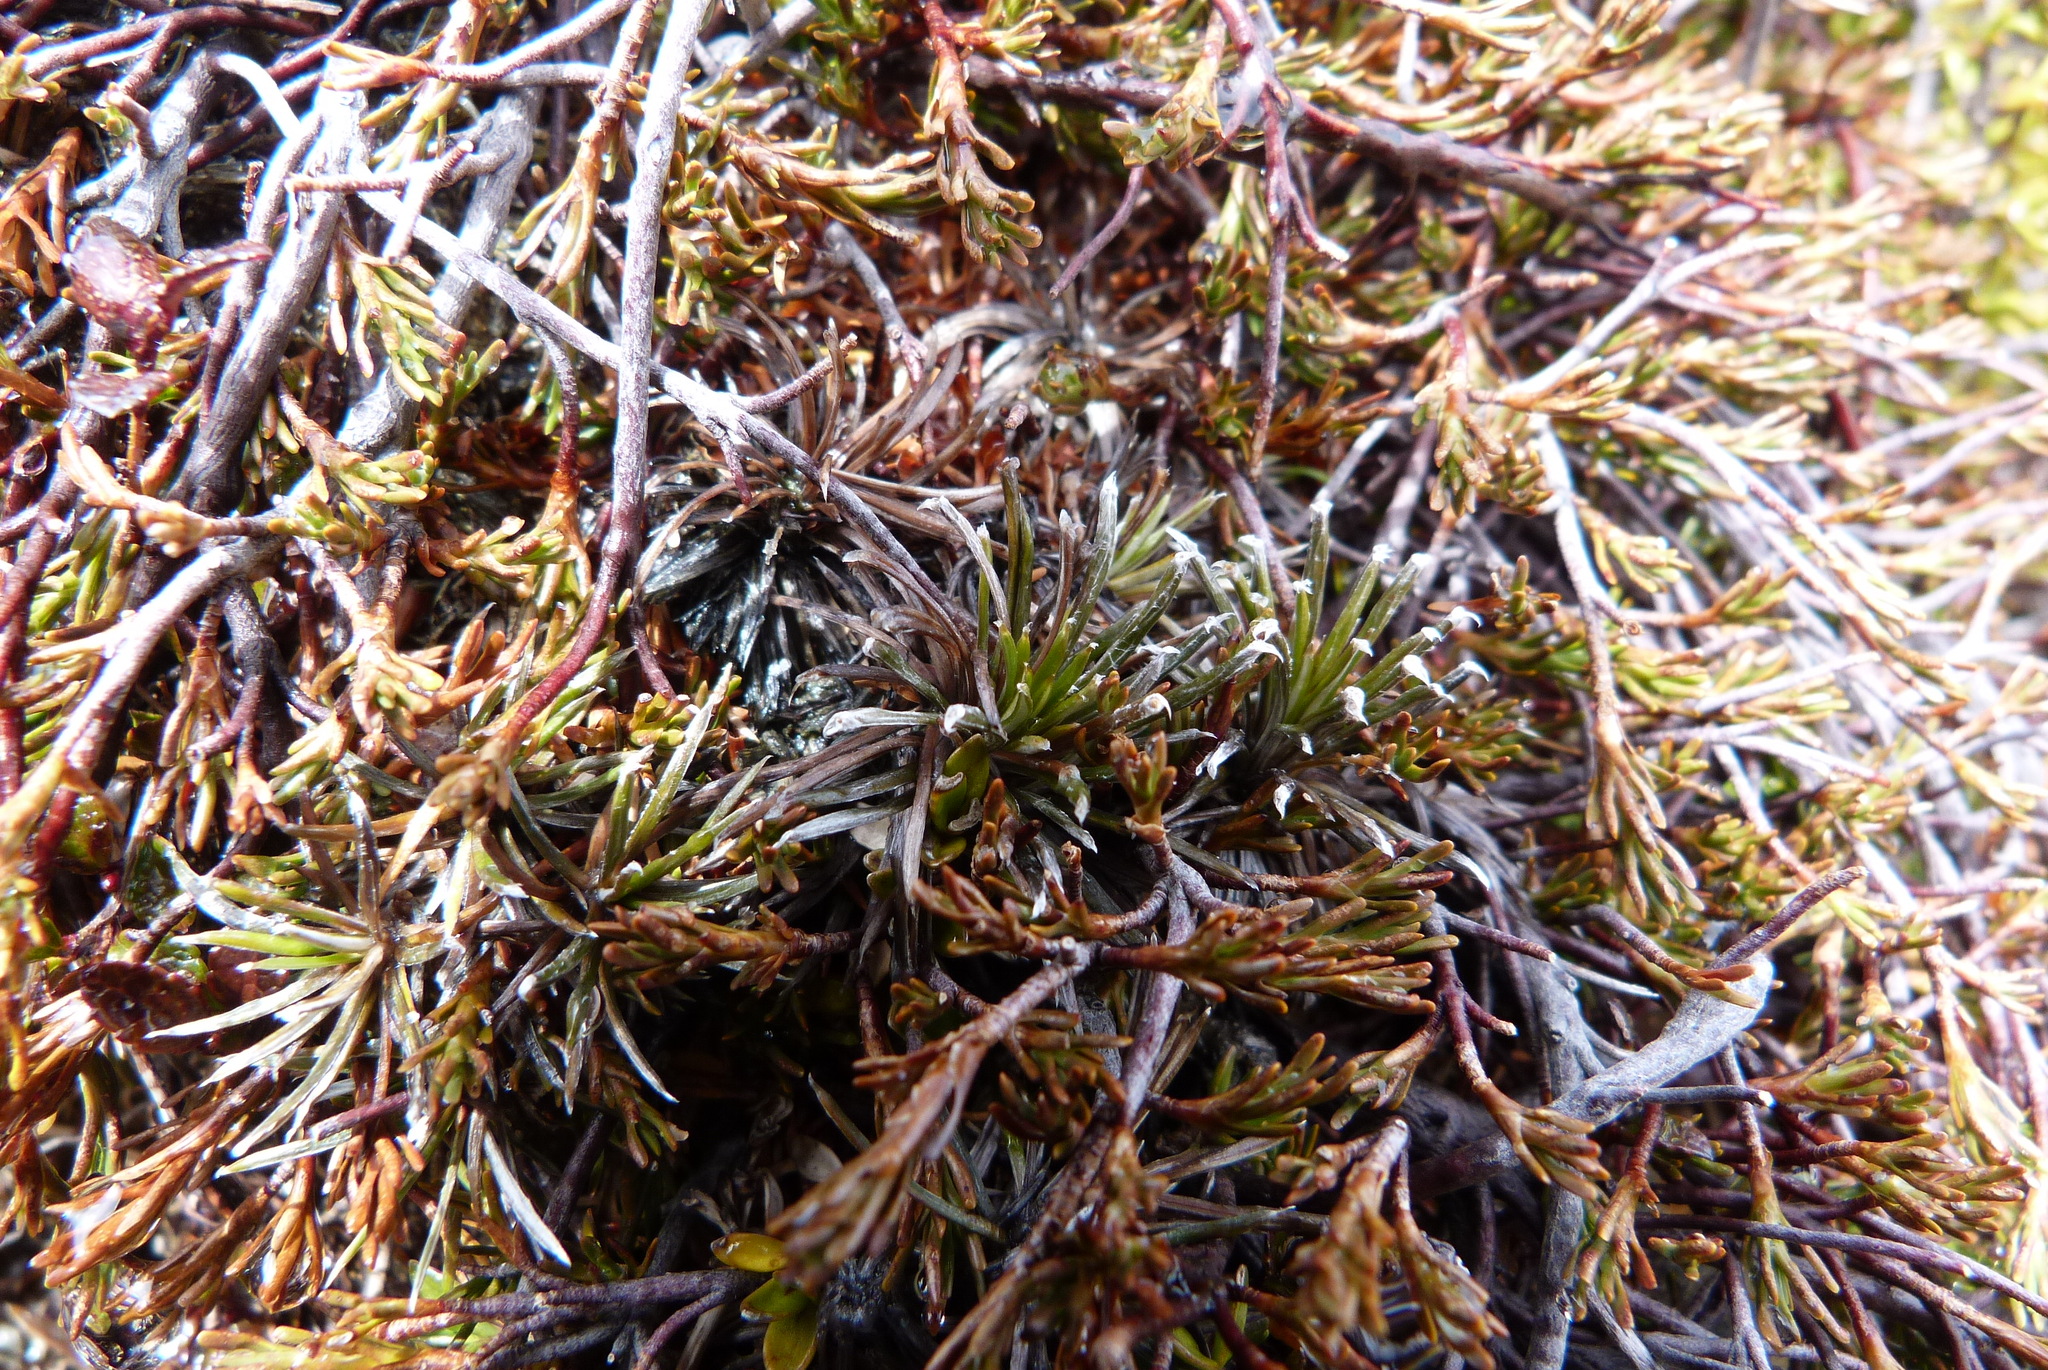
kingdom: Plantae
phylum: Tracheophyta
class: Magnoliopsida
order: Asterales
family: Asteraceae
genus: Celmisia
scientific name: Celmisia laricifolia
